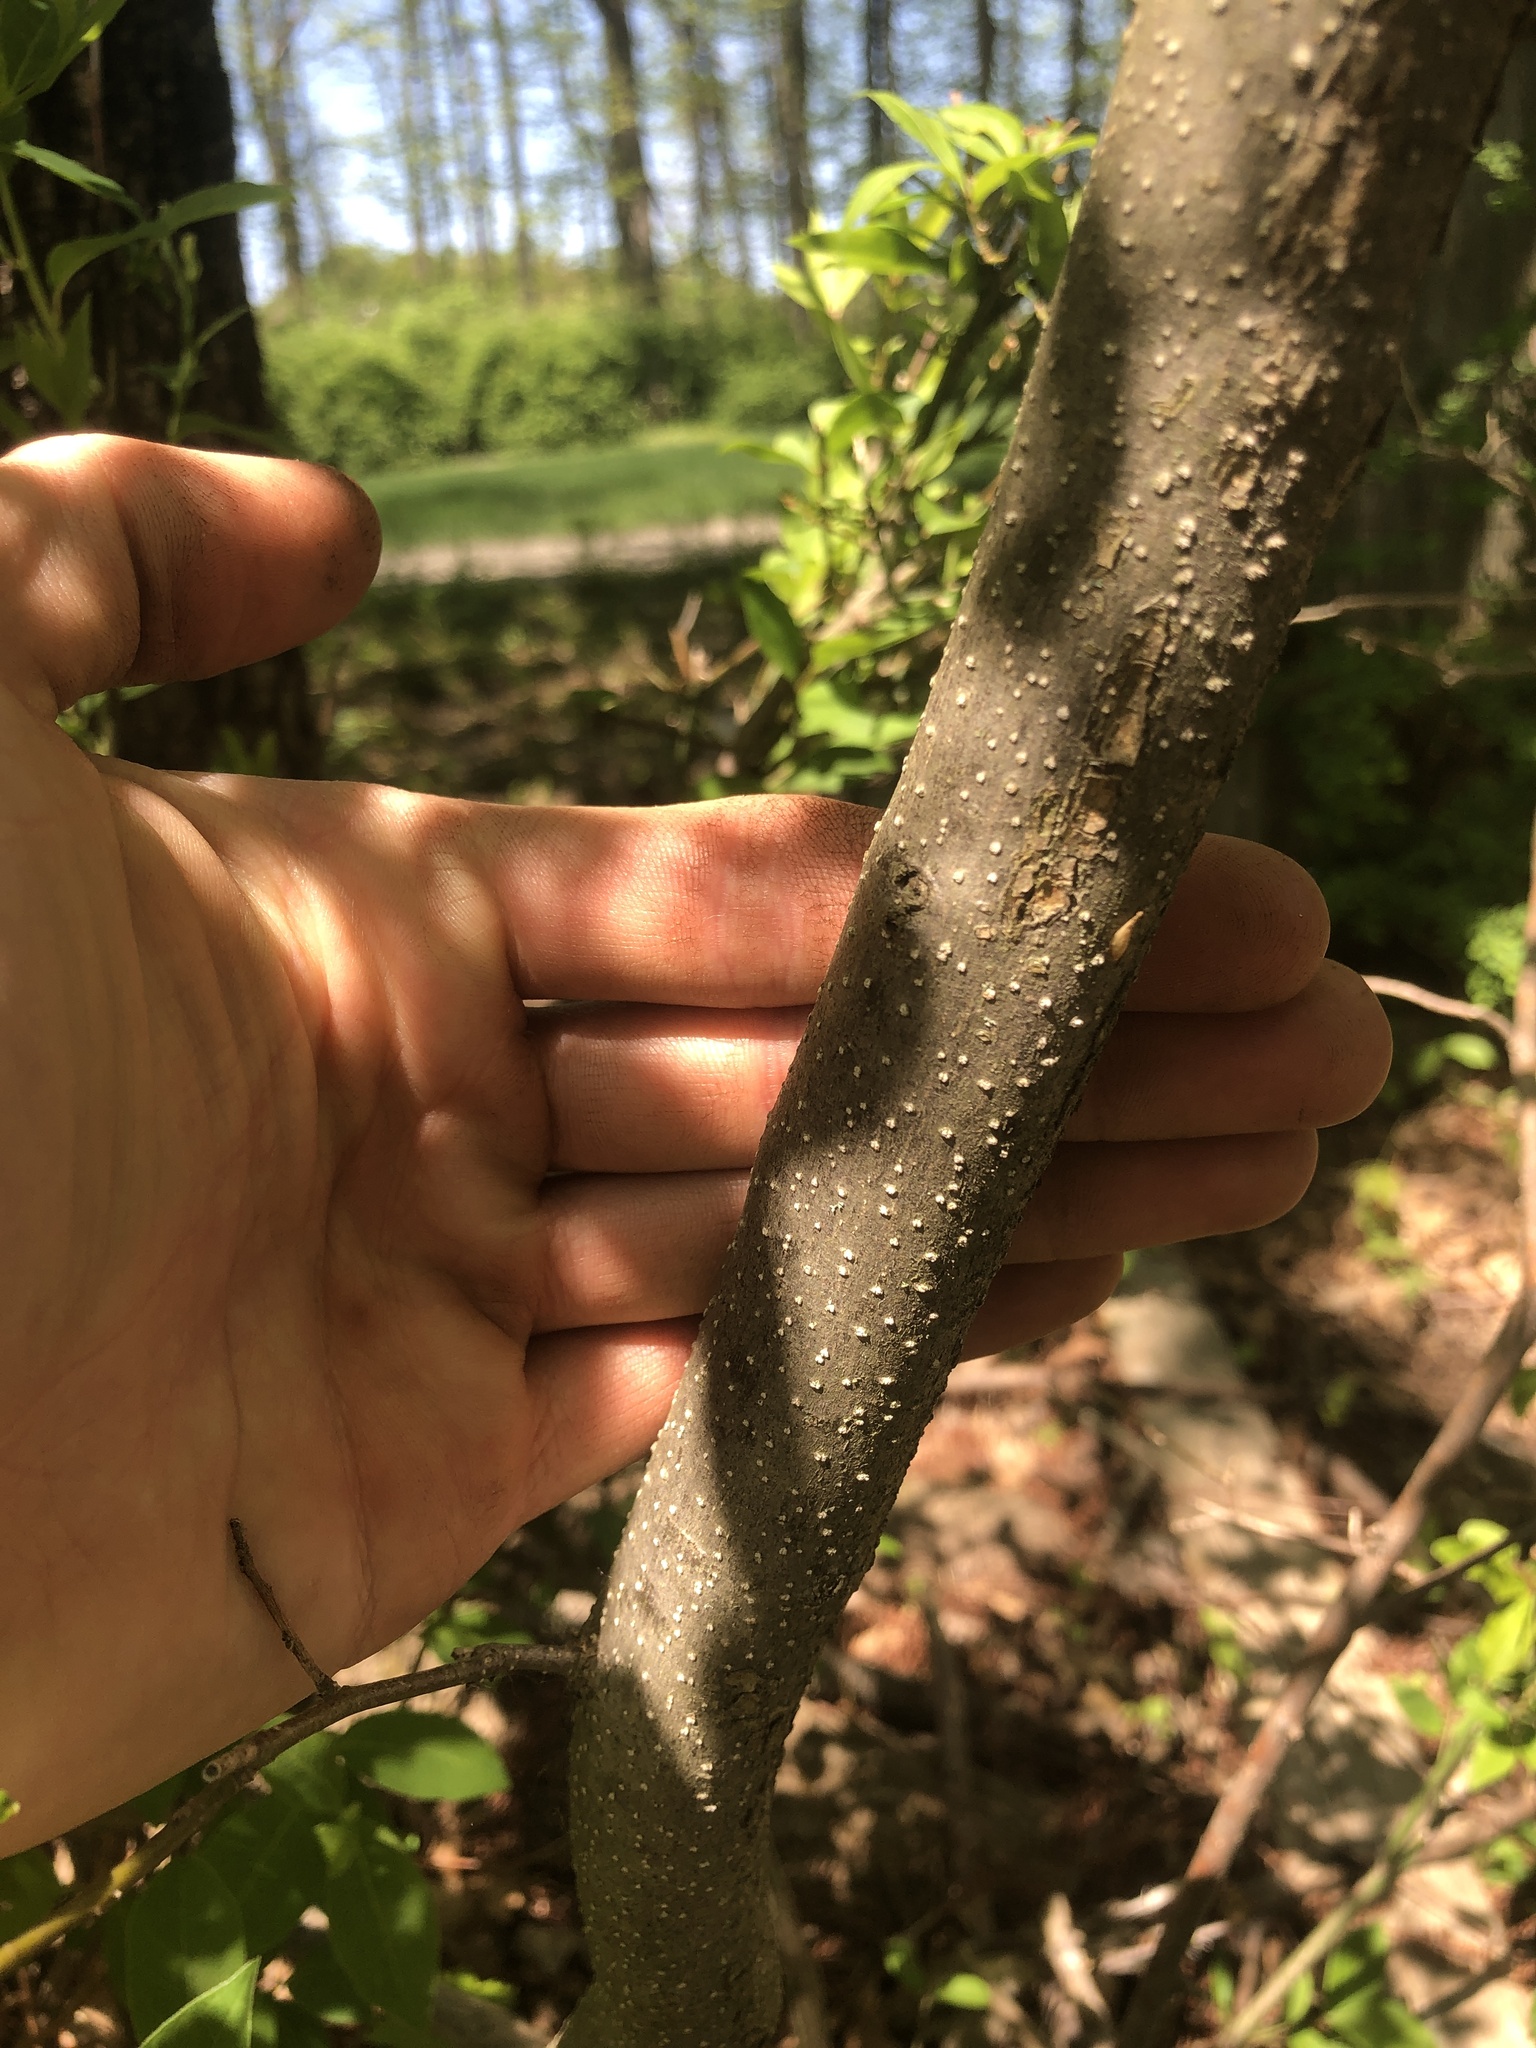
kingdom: Plantae
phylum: Tracheophyta
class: Magnoliopsida
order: Laurales
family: Lauraceae
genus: Lindera
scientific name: Lindera benzoin
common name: Spicebush
